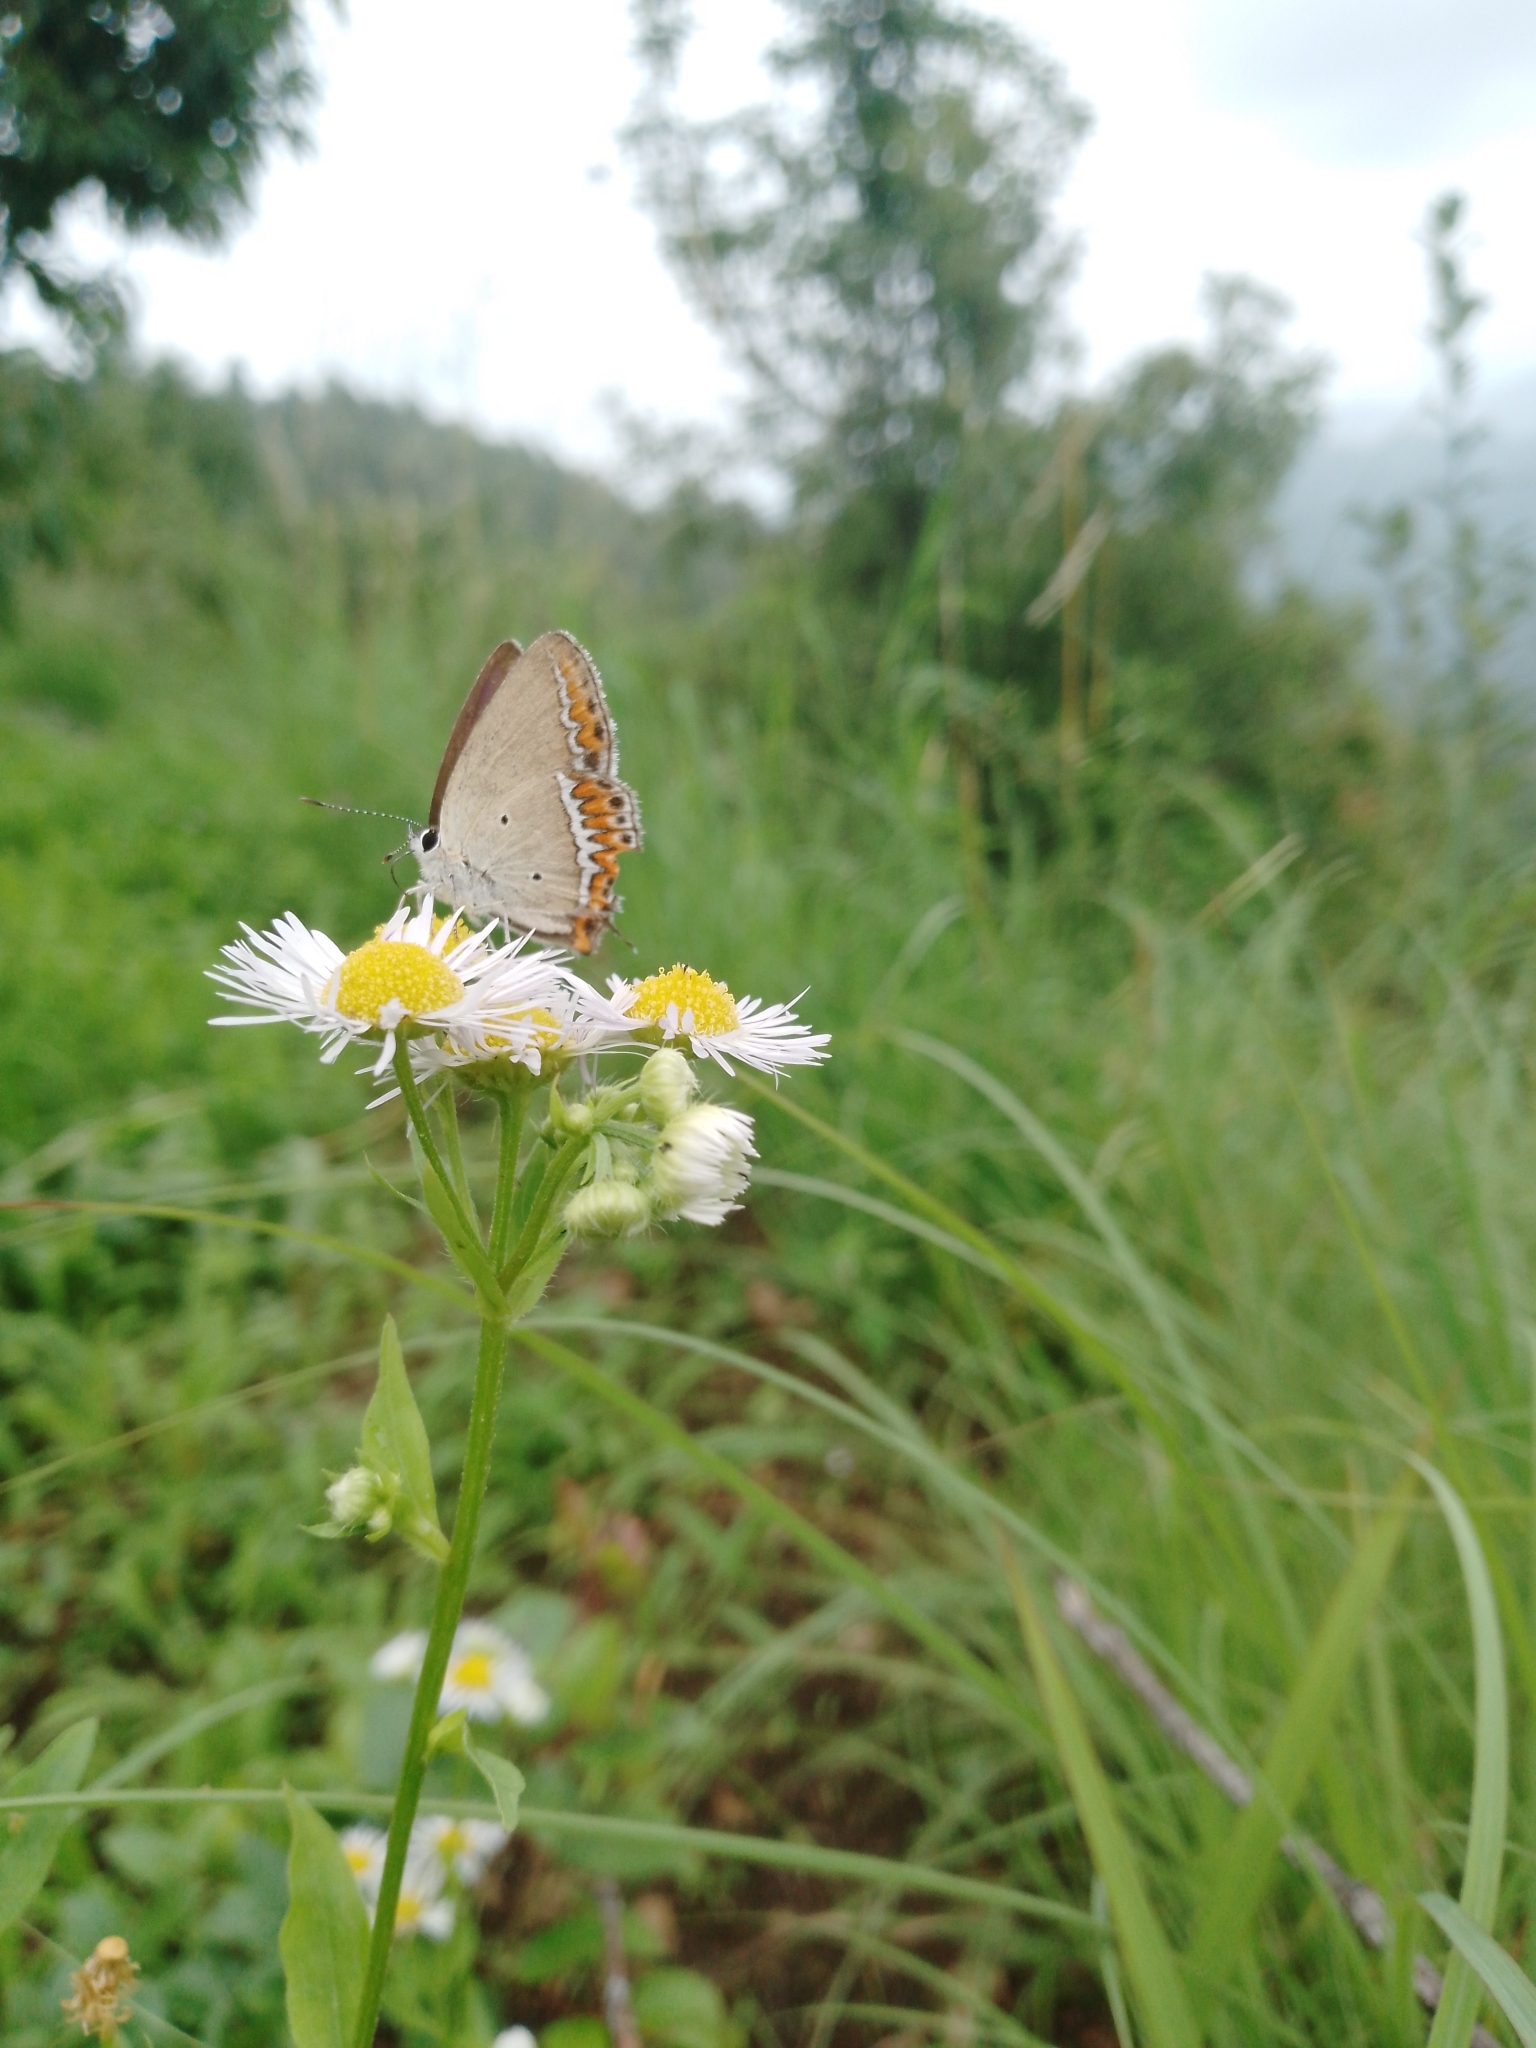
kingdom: Animalia
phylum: Arthropoda
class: Insecta
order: Lepidoptera
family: Lycaenidae
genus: Heliophorus
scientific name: Heliophorus sena
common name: Sorrel sapphire
